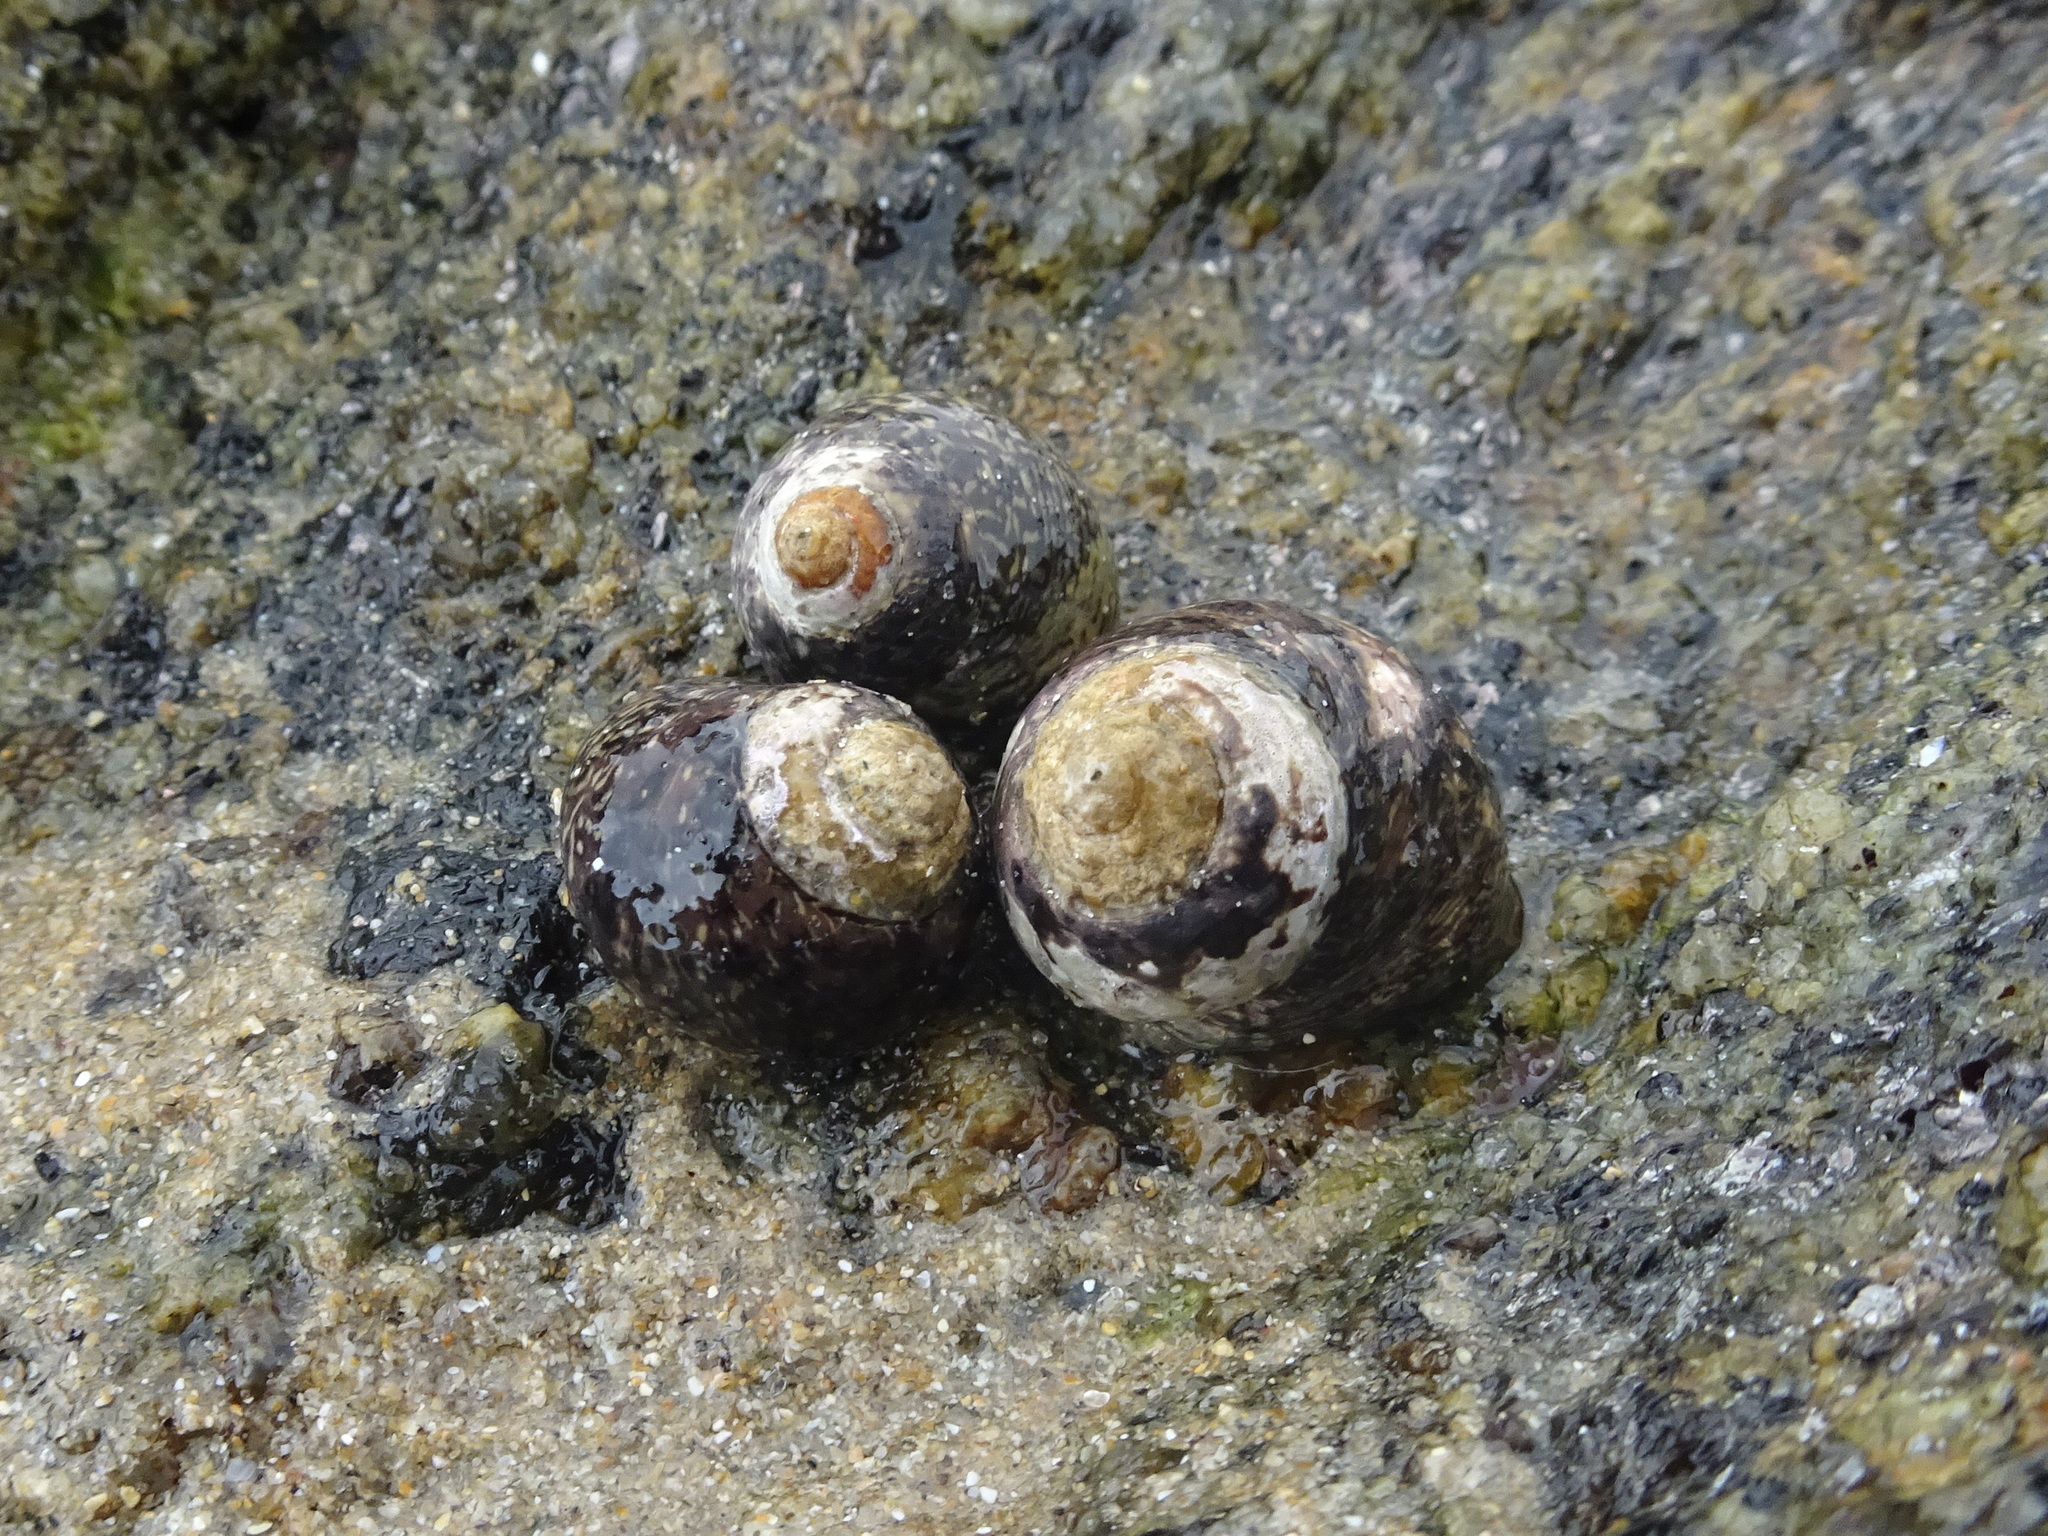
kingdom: Animalia
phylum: Mollusca
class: Gastropoda
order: Trochida
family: Trochidae
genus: Phorcus
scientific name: Phorcus lineatus
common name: Toothed top shell
